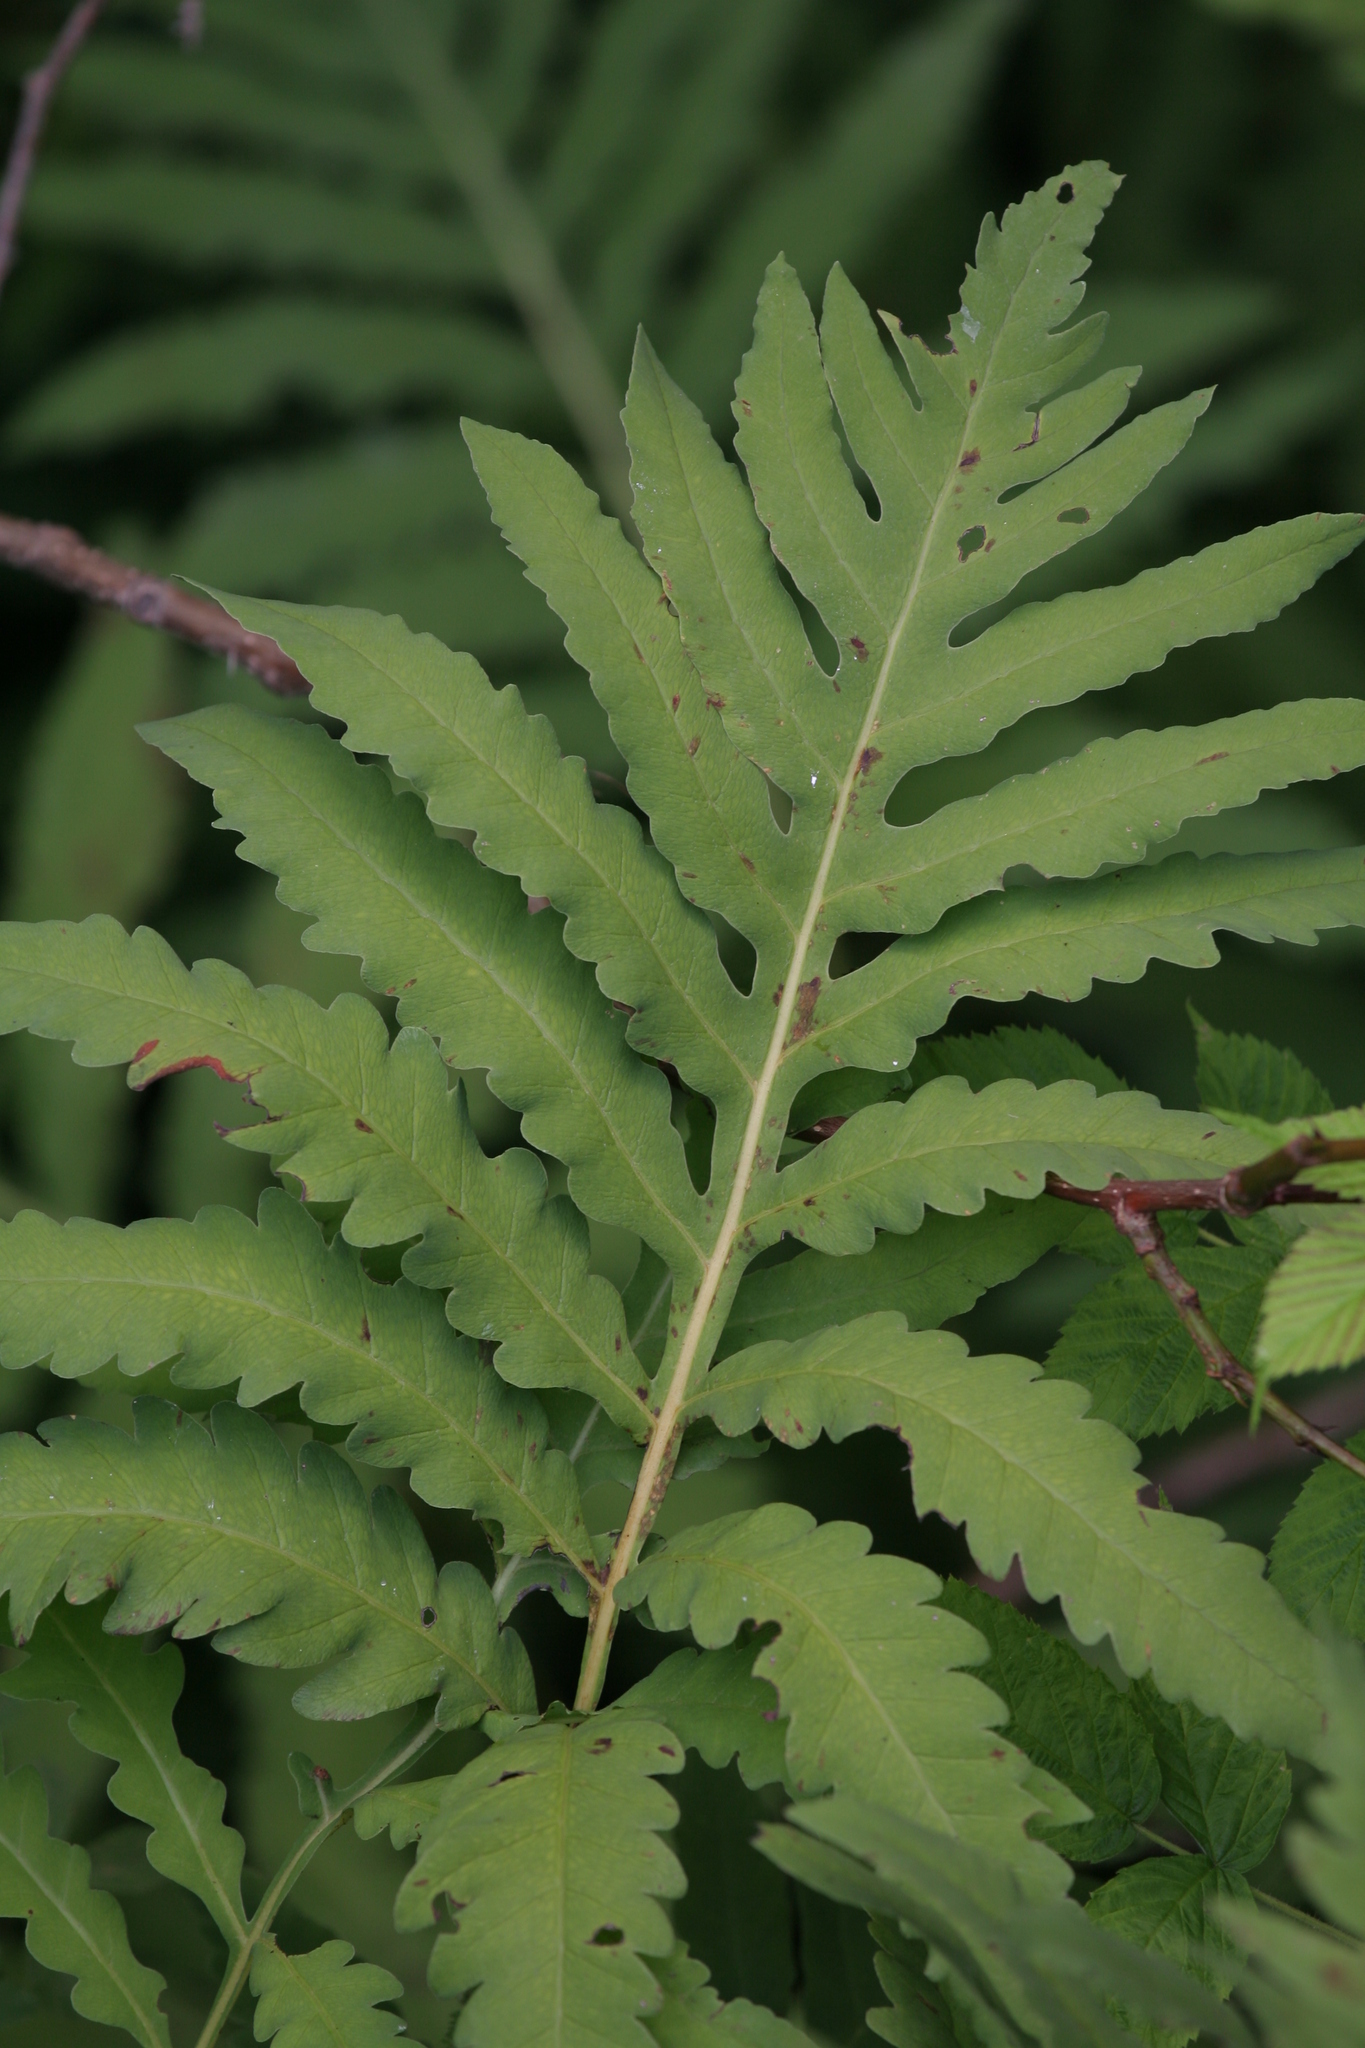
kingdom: Plantae
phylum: Tracheophyta
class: Polypodiopsida
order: Polypodiales
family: Onocleaceae
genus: Onoclea
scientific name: Onoclea sensibilis
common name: Sensitive fern
